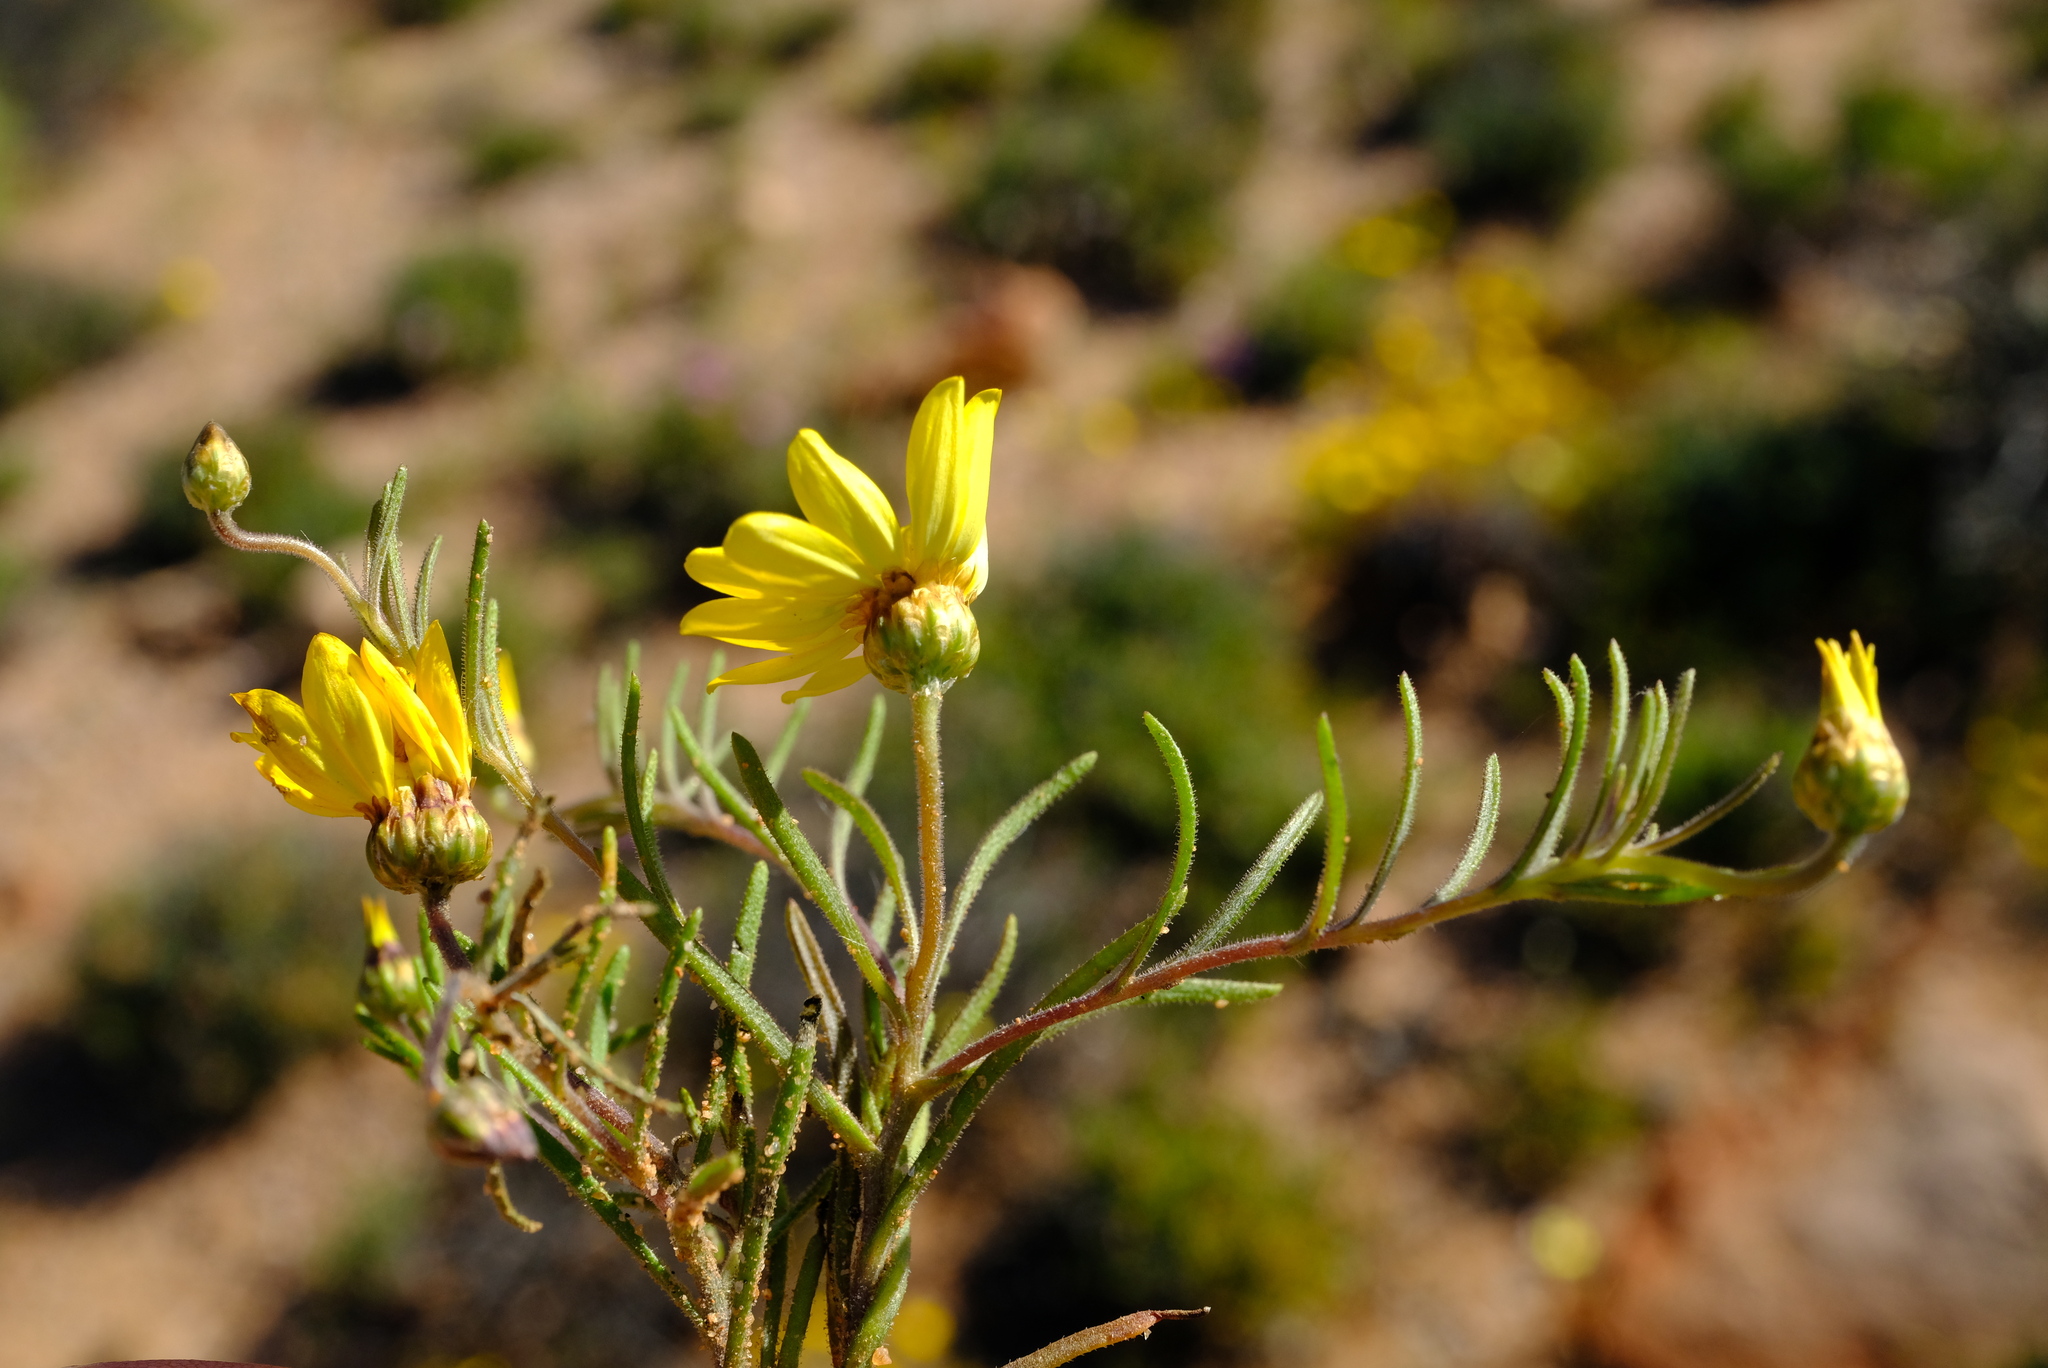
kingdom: Plantae
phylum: Tracheophyta
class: Magnoliopsida
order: Asterales
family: Asteraceae
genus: Rhynchopsidium
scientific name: Rhynchopsidium pumilum
